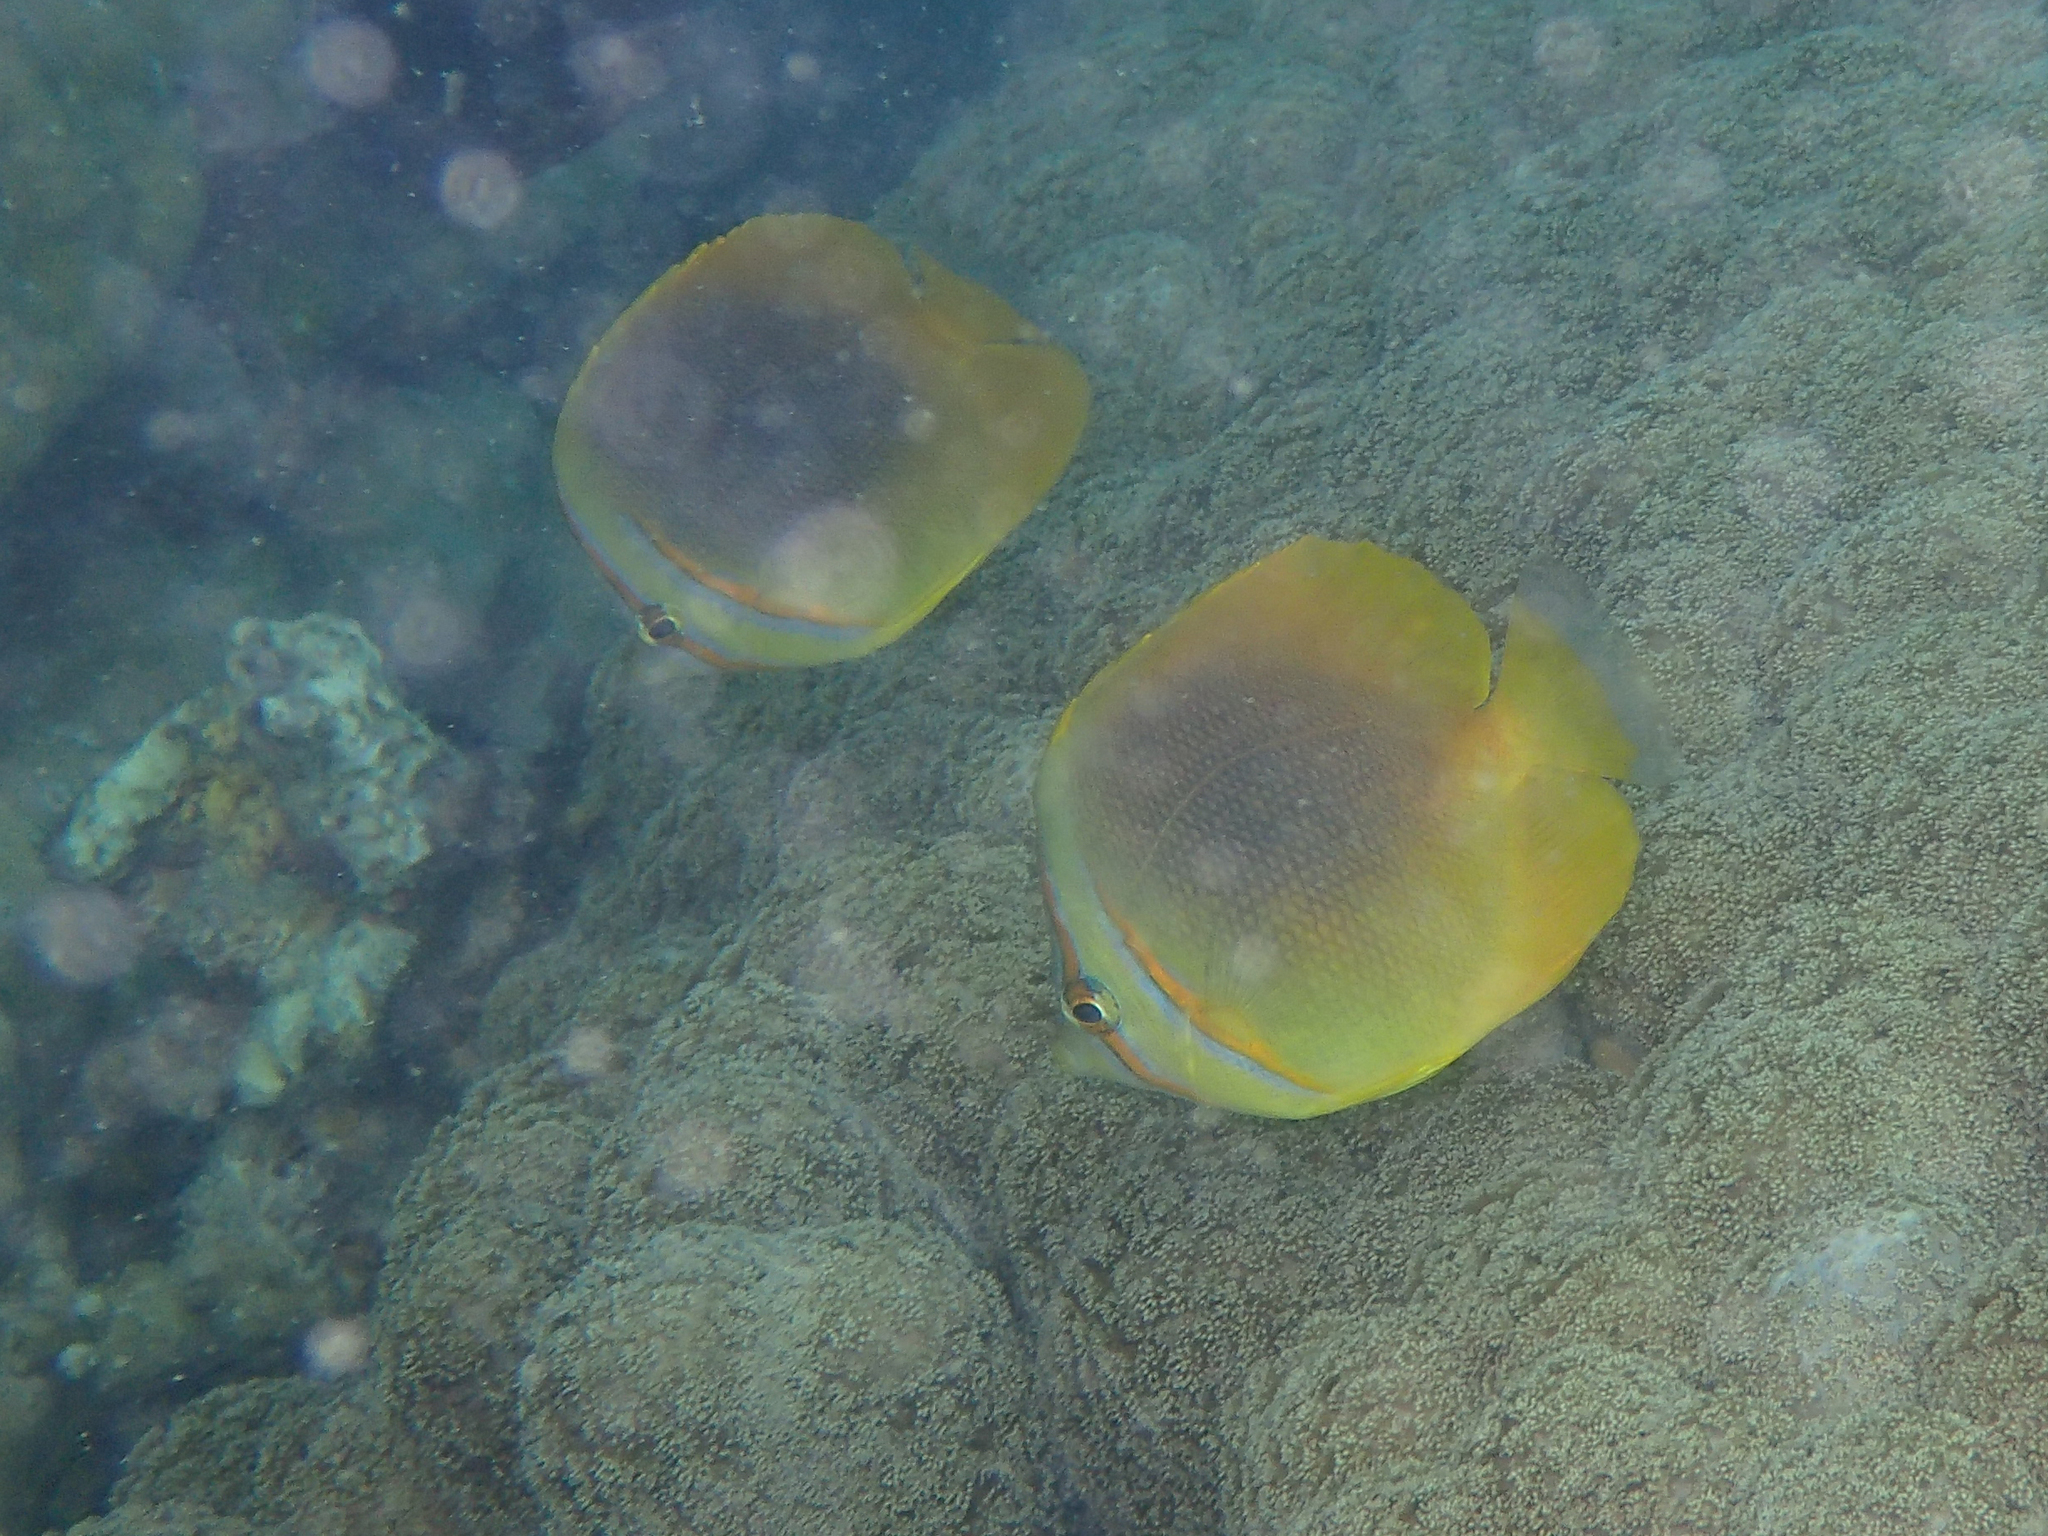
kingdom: Animalia
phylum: Chordata
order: Perciformes
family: Chaetodontidae
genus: Chaetodon
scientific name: Chaetodon aureofasciatus
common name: Golden butterflyfish
